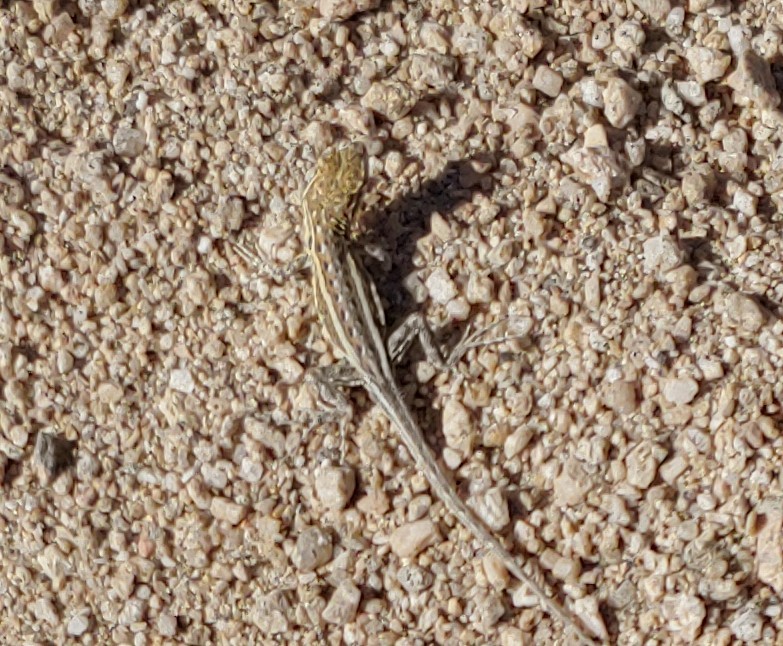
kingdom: Animalia
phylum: Chordata
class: Squamata
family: Phrynosomatidae
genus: Uta
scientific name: Uta stansburiana
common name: Side-blotched lizard
